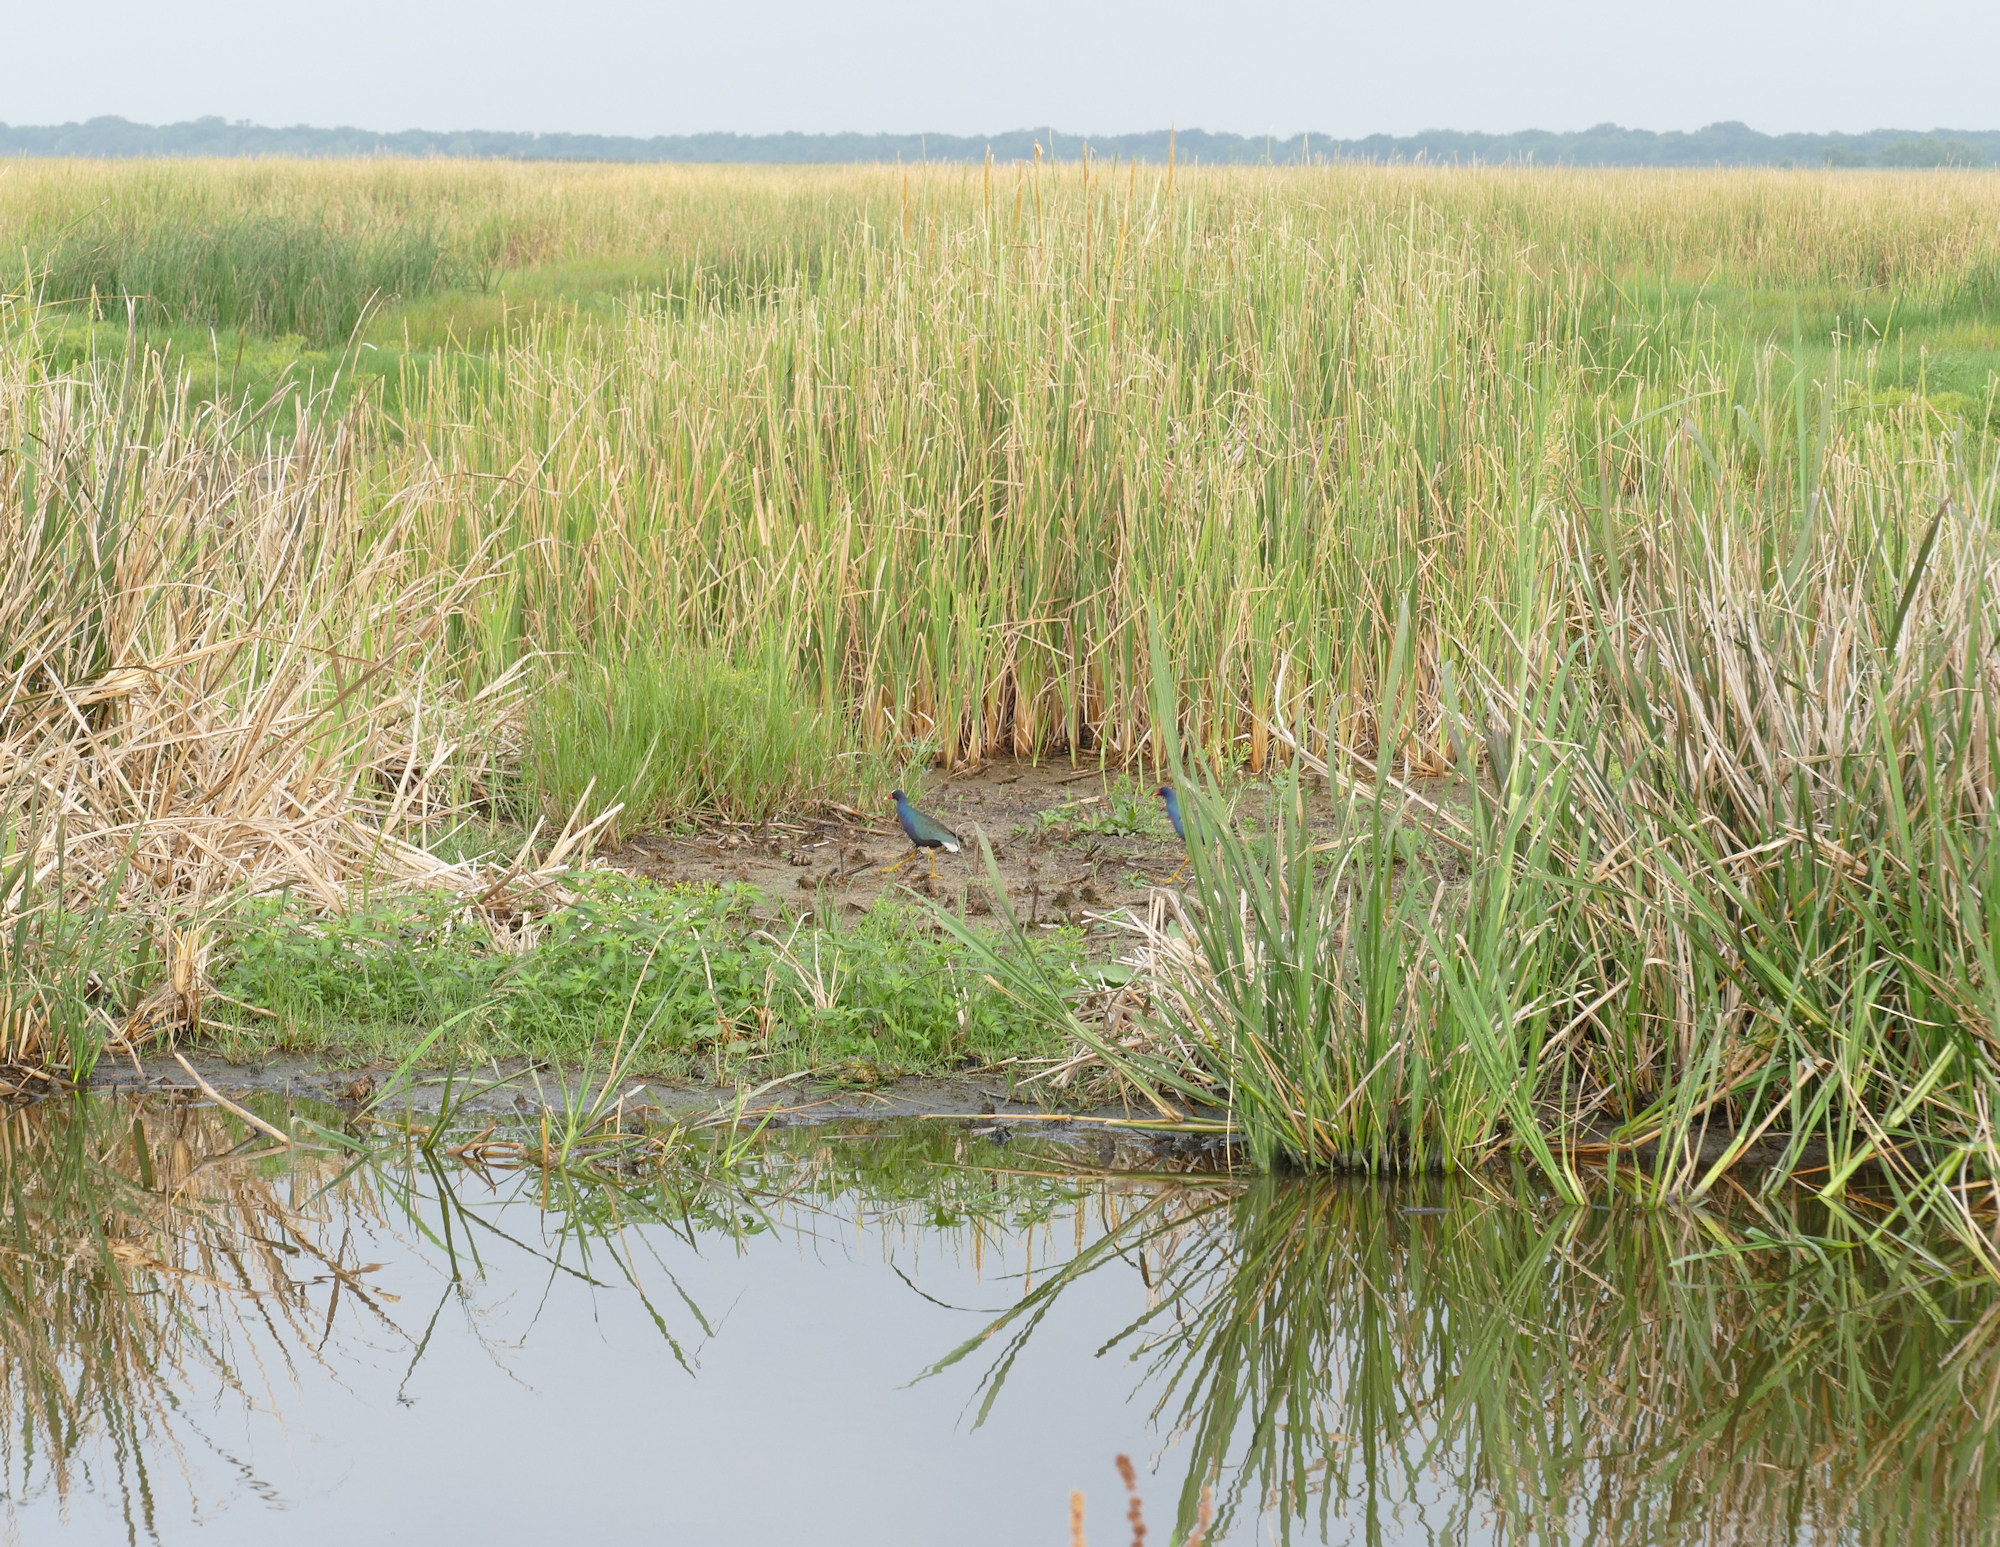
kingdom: Animalia
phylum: Chordata
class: Aves
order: Gruiformes
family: Rallidae
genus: Porphyrio
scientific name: Porphyrio martinica
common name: Purple gallinule
